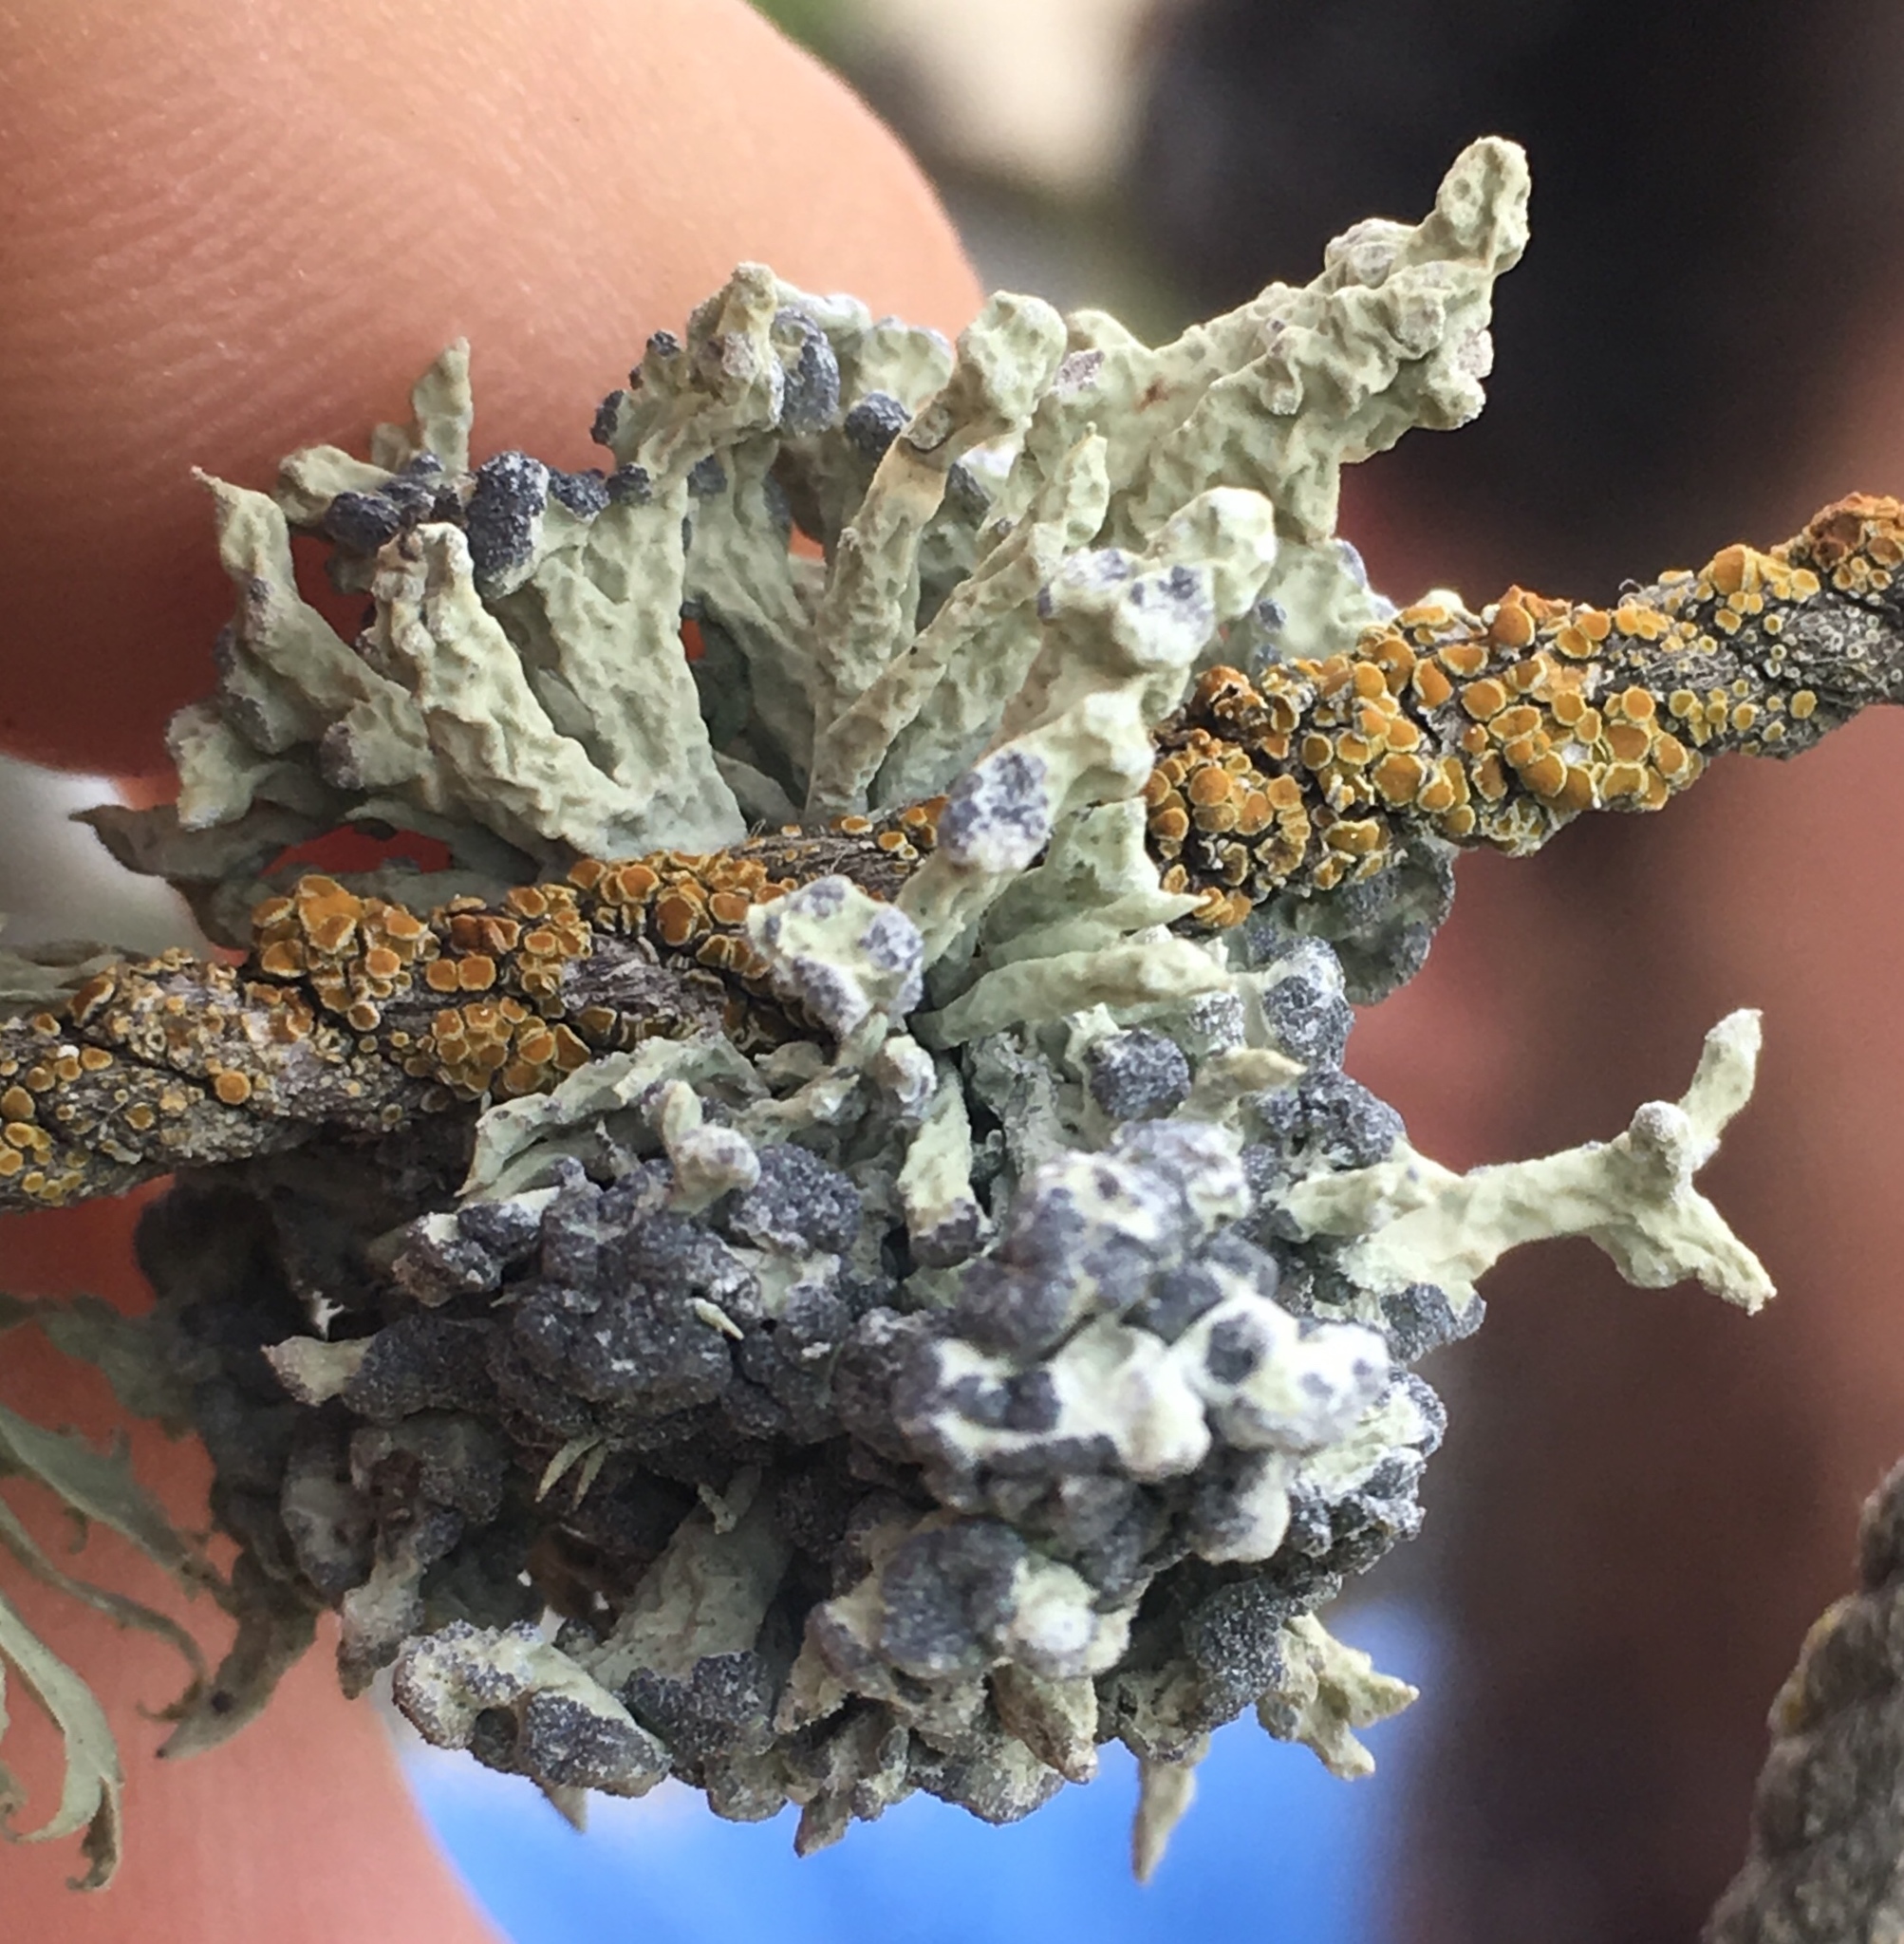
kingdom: Fungi
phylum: Ascomycota
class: Lecanoromycetes
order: Lecanorales
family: Ramalinaceae
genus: Niebla
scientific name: Niebla cephalota
